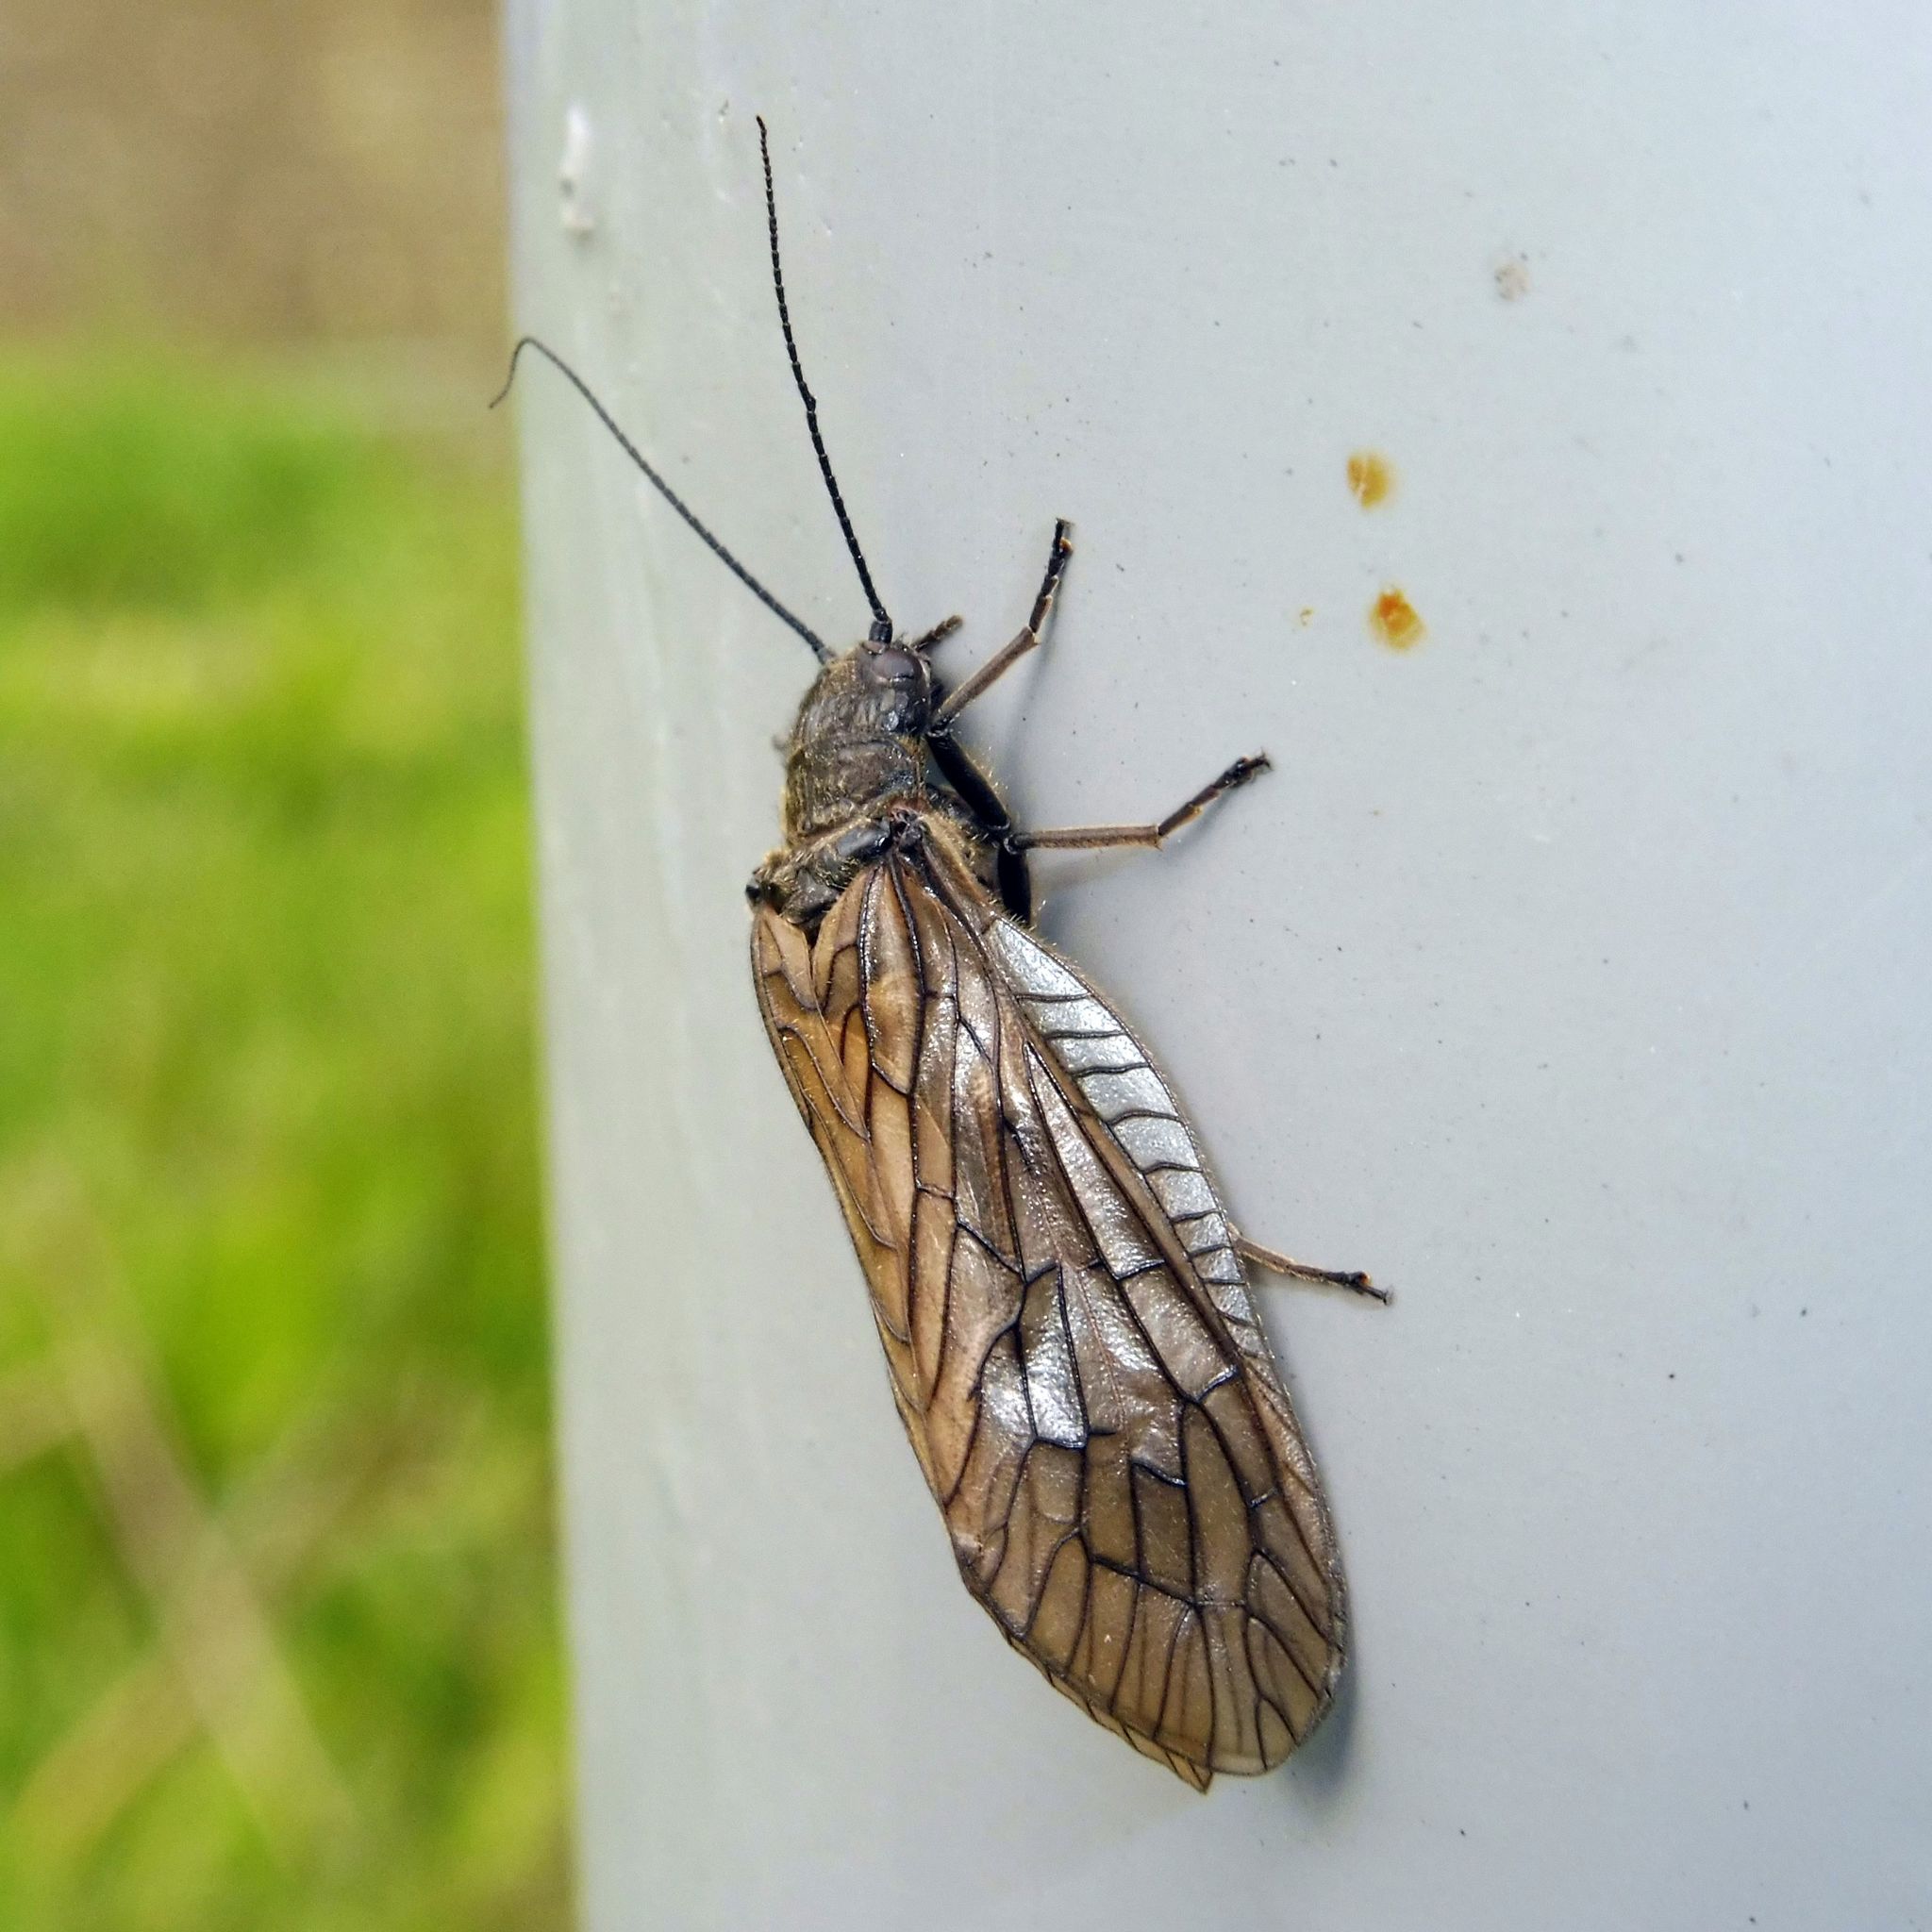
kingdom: Animalia
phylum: Arthropoda
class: Insecta
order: Megaloptera
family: Sialidae
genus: Sialis
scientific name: Sialis
